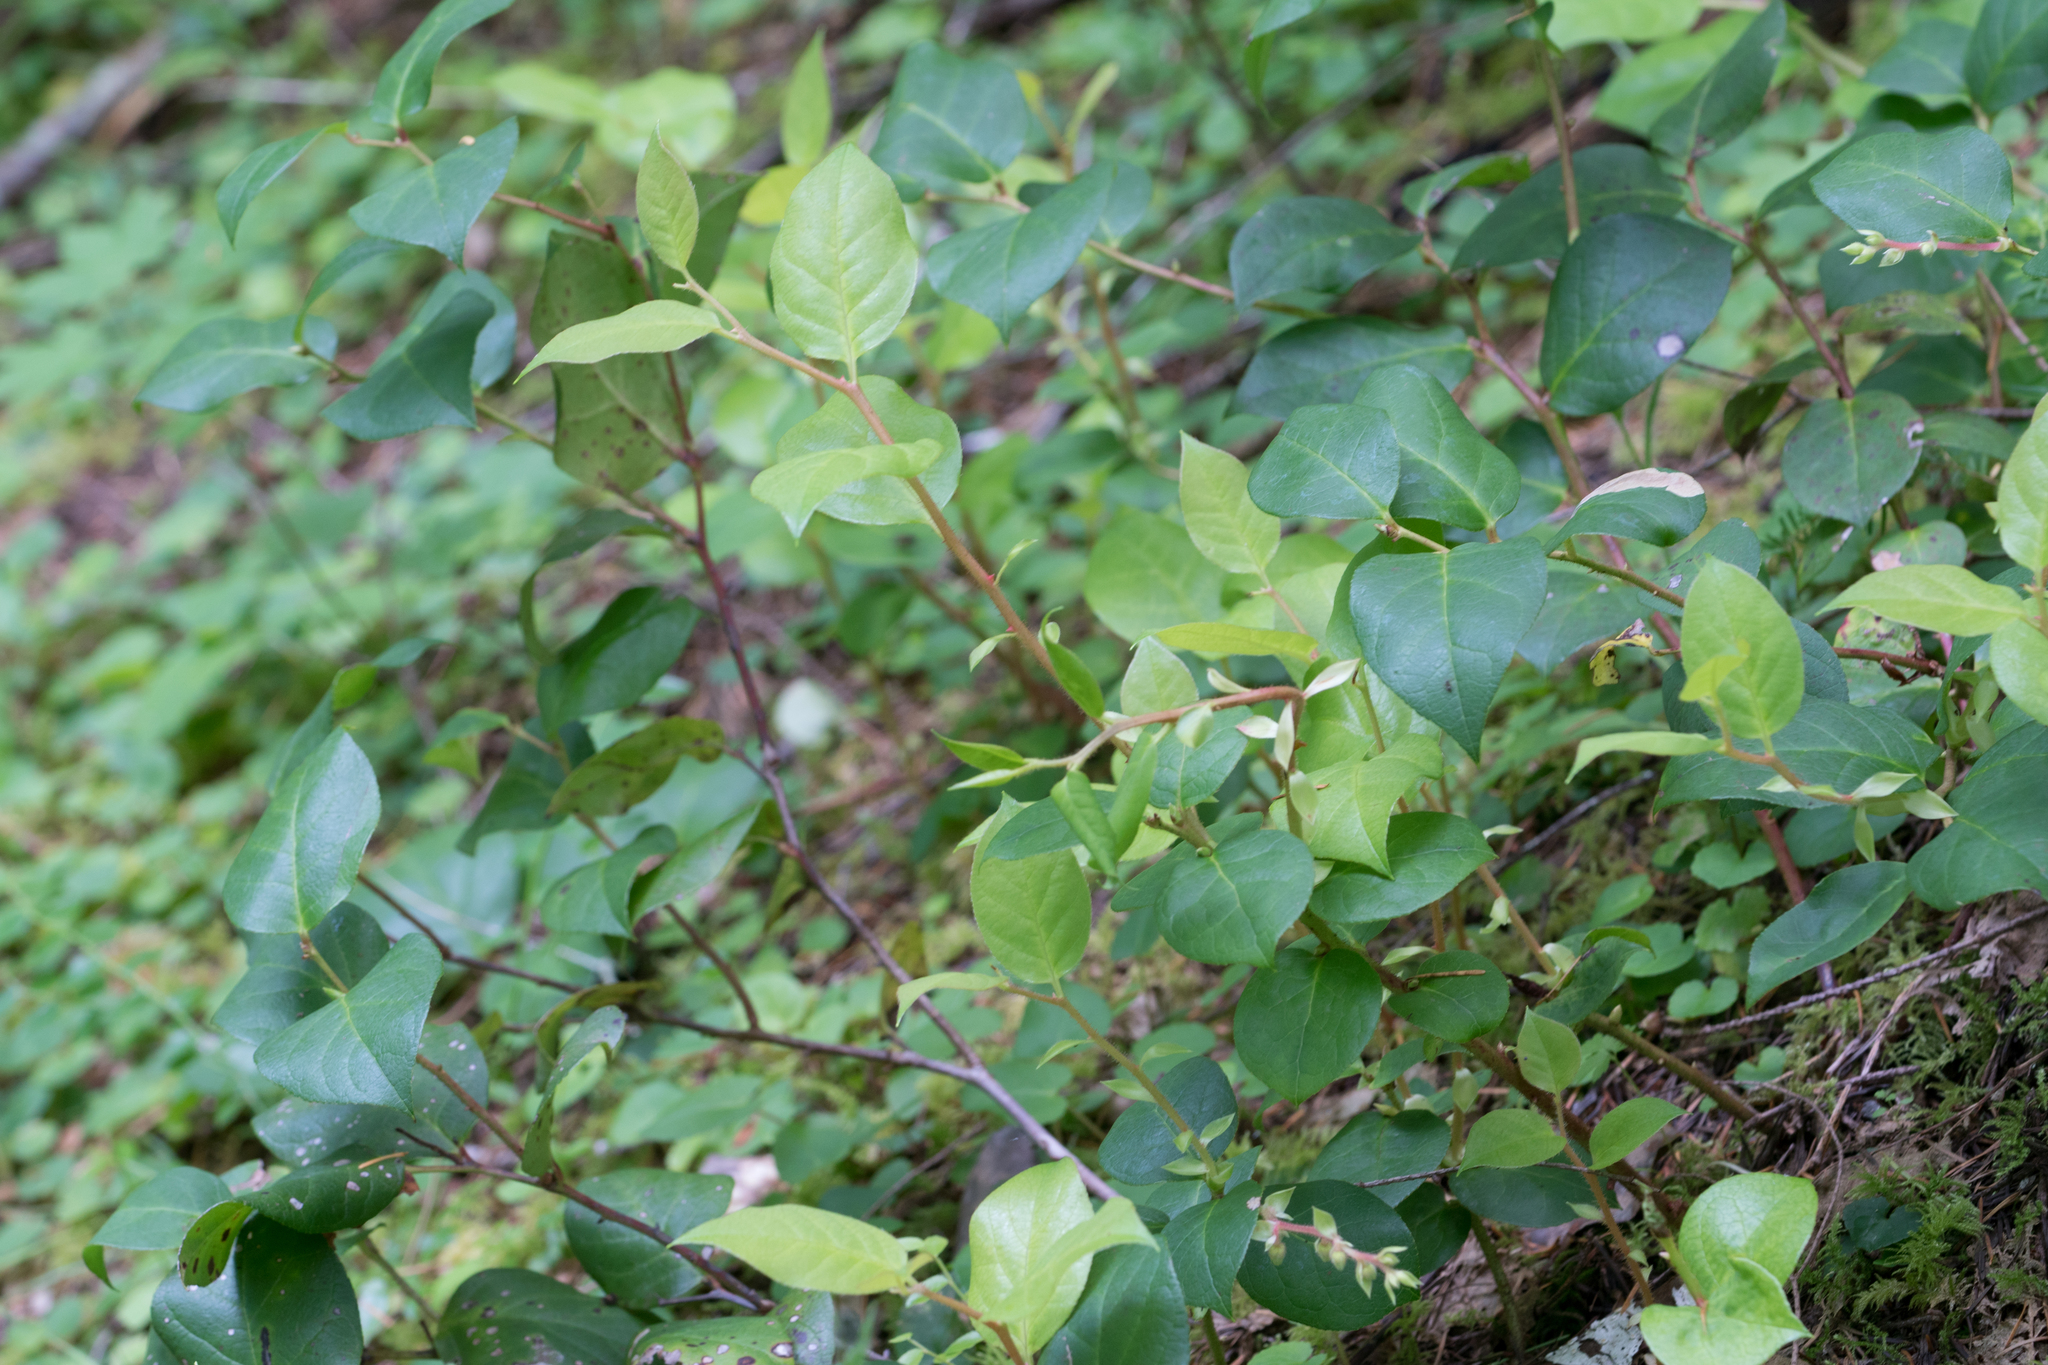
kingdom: Plantae
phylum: Tracheophyta
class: Magnoliopsida
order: Ericales
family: Ericaceae
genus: Gaultheria
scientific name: Gaultheria shallon
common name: Shallon
